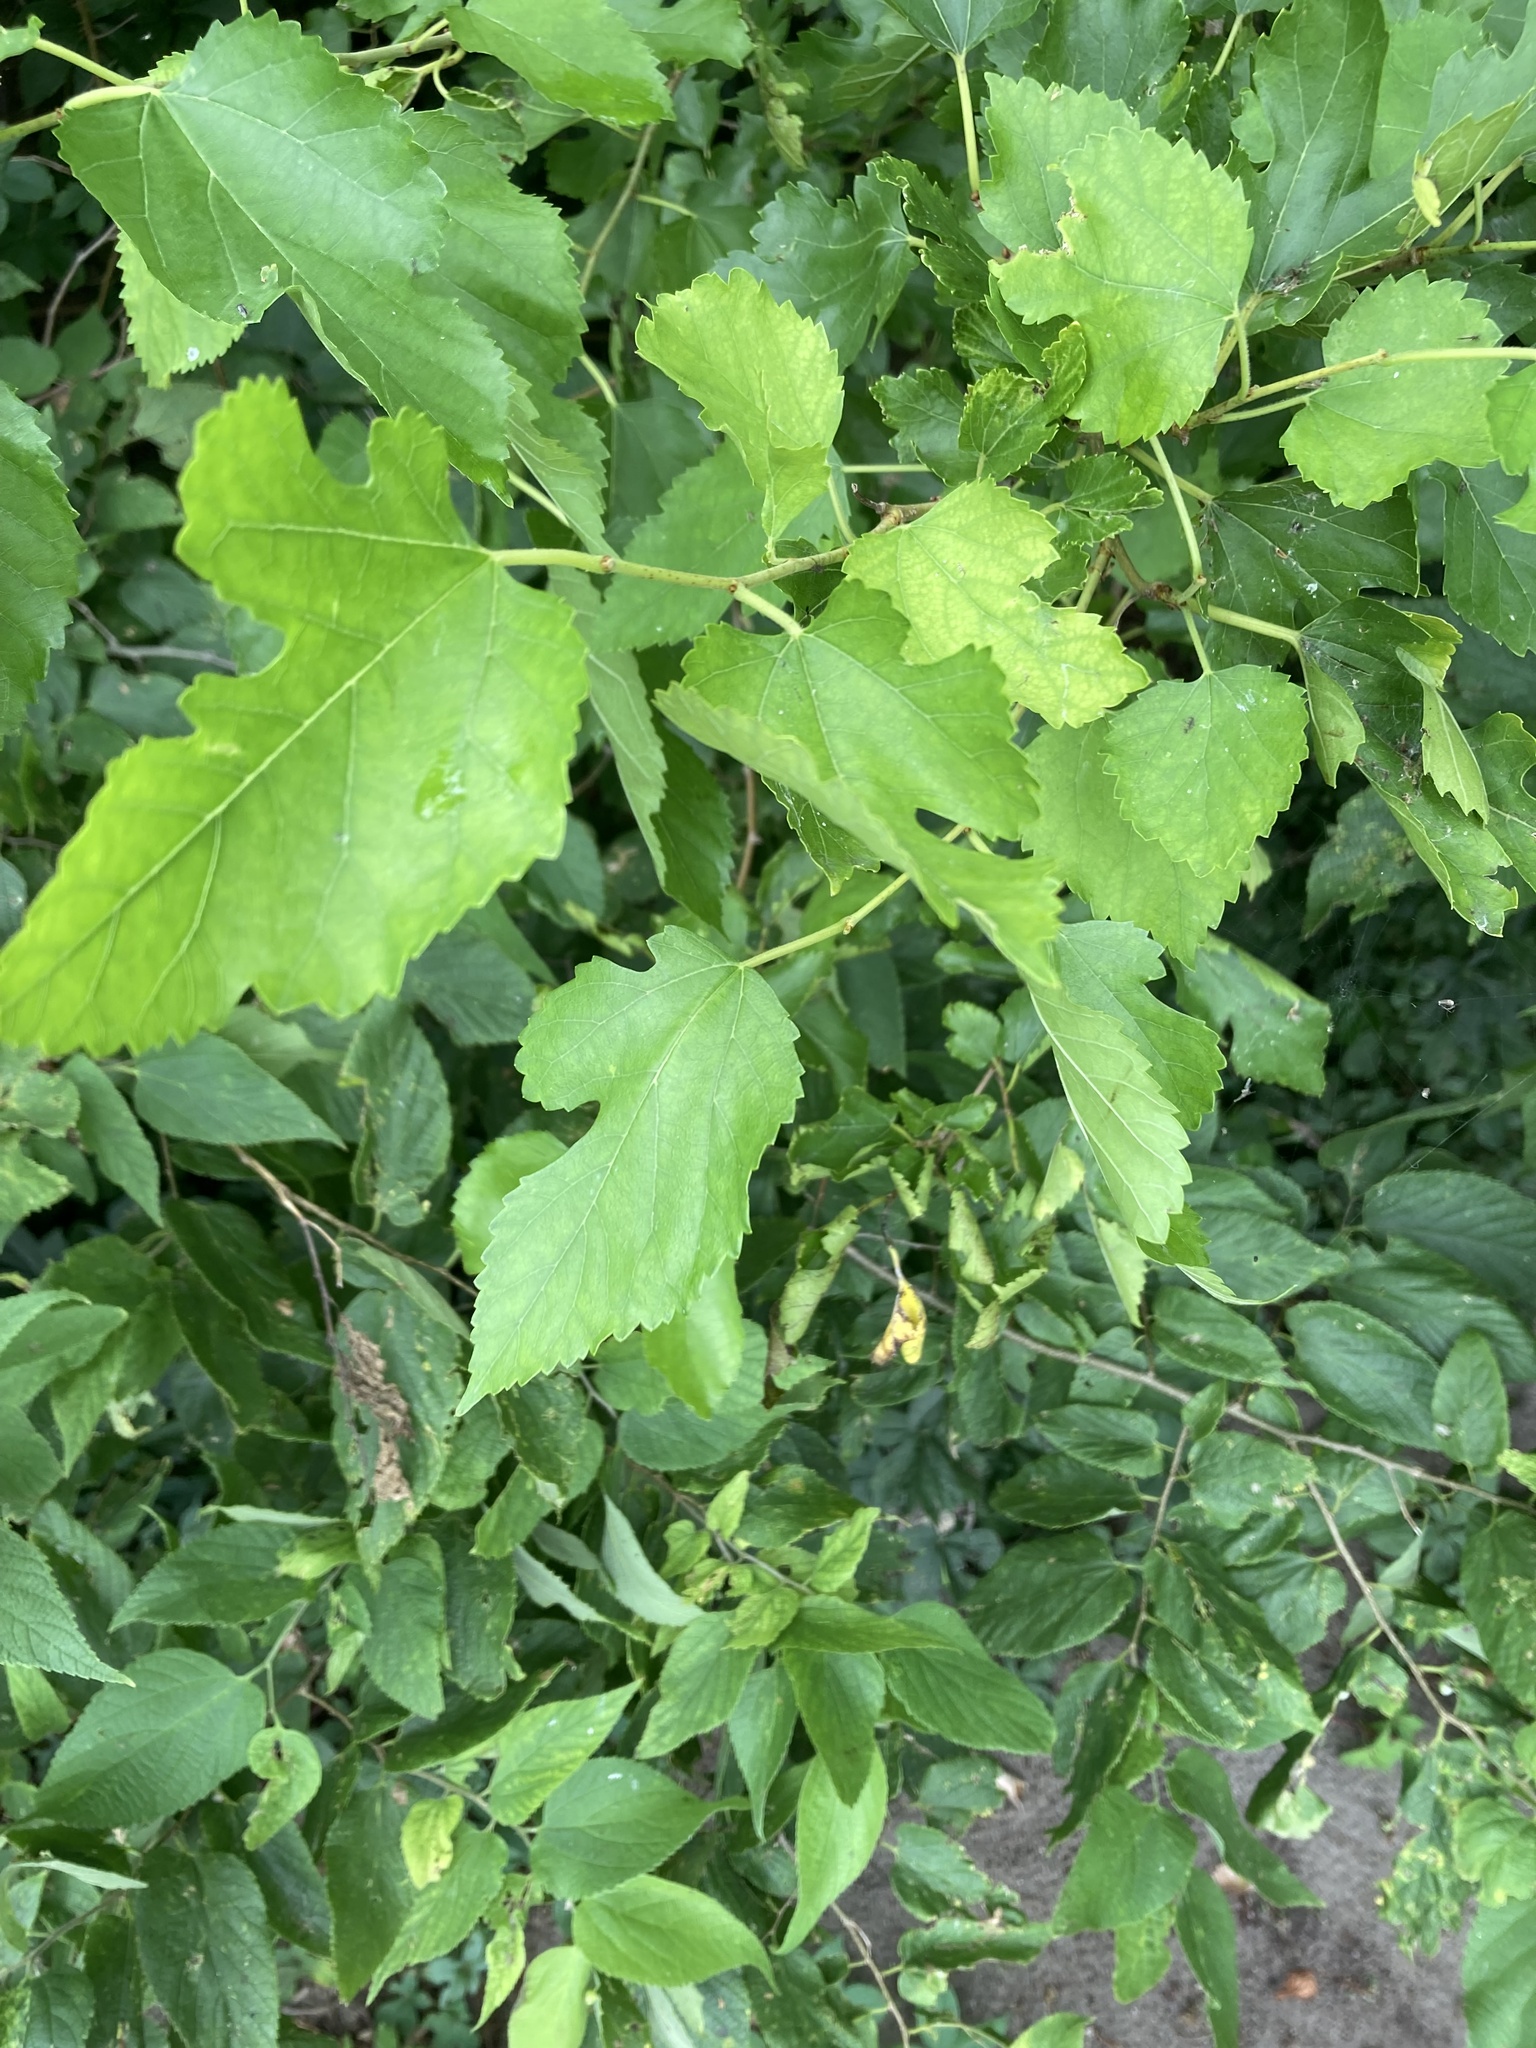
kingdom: Plantae
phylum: Tracheophyta
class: Magnoliopsida
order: Rosales
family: Moraceae
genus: Morus
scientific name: Morus alba
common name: White mulberry
